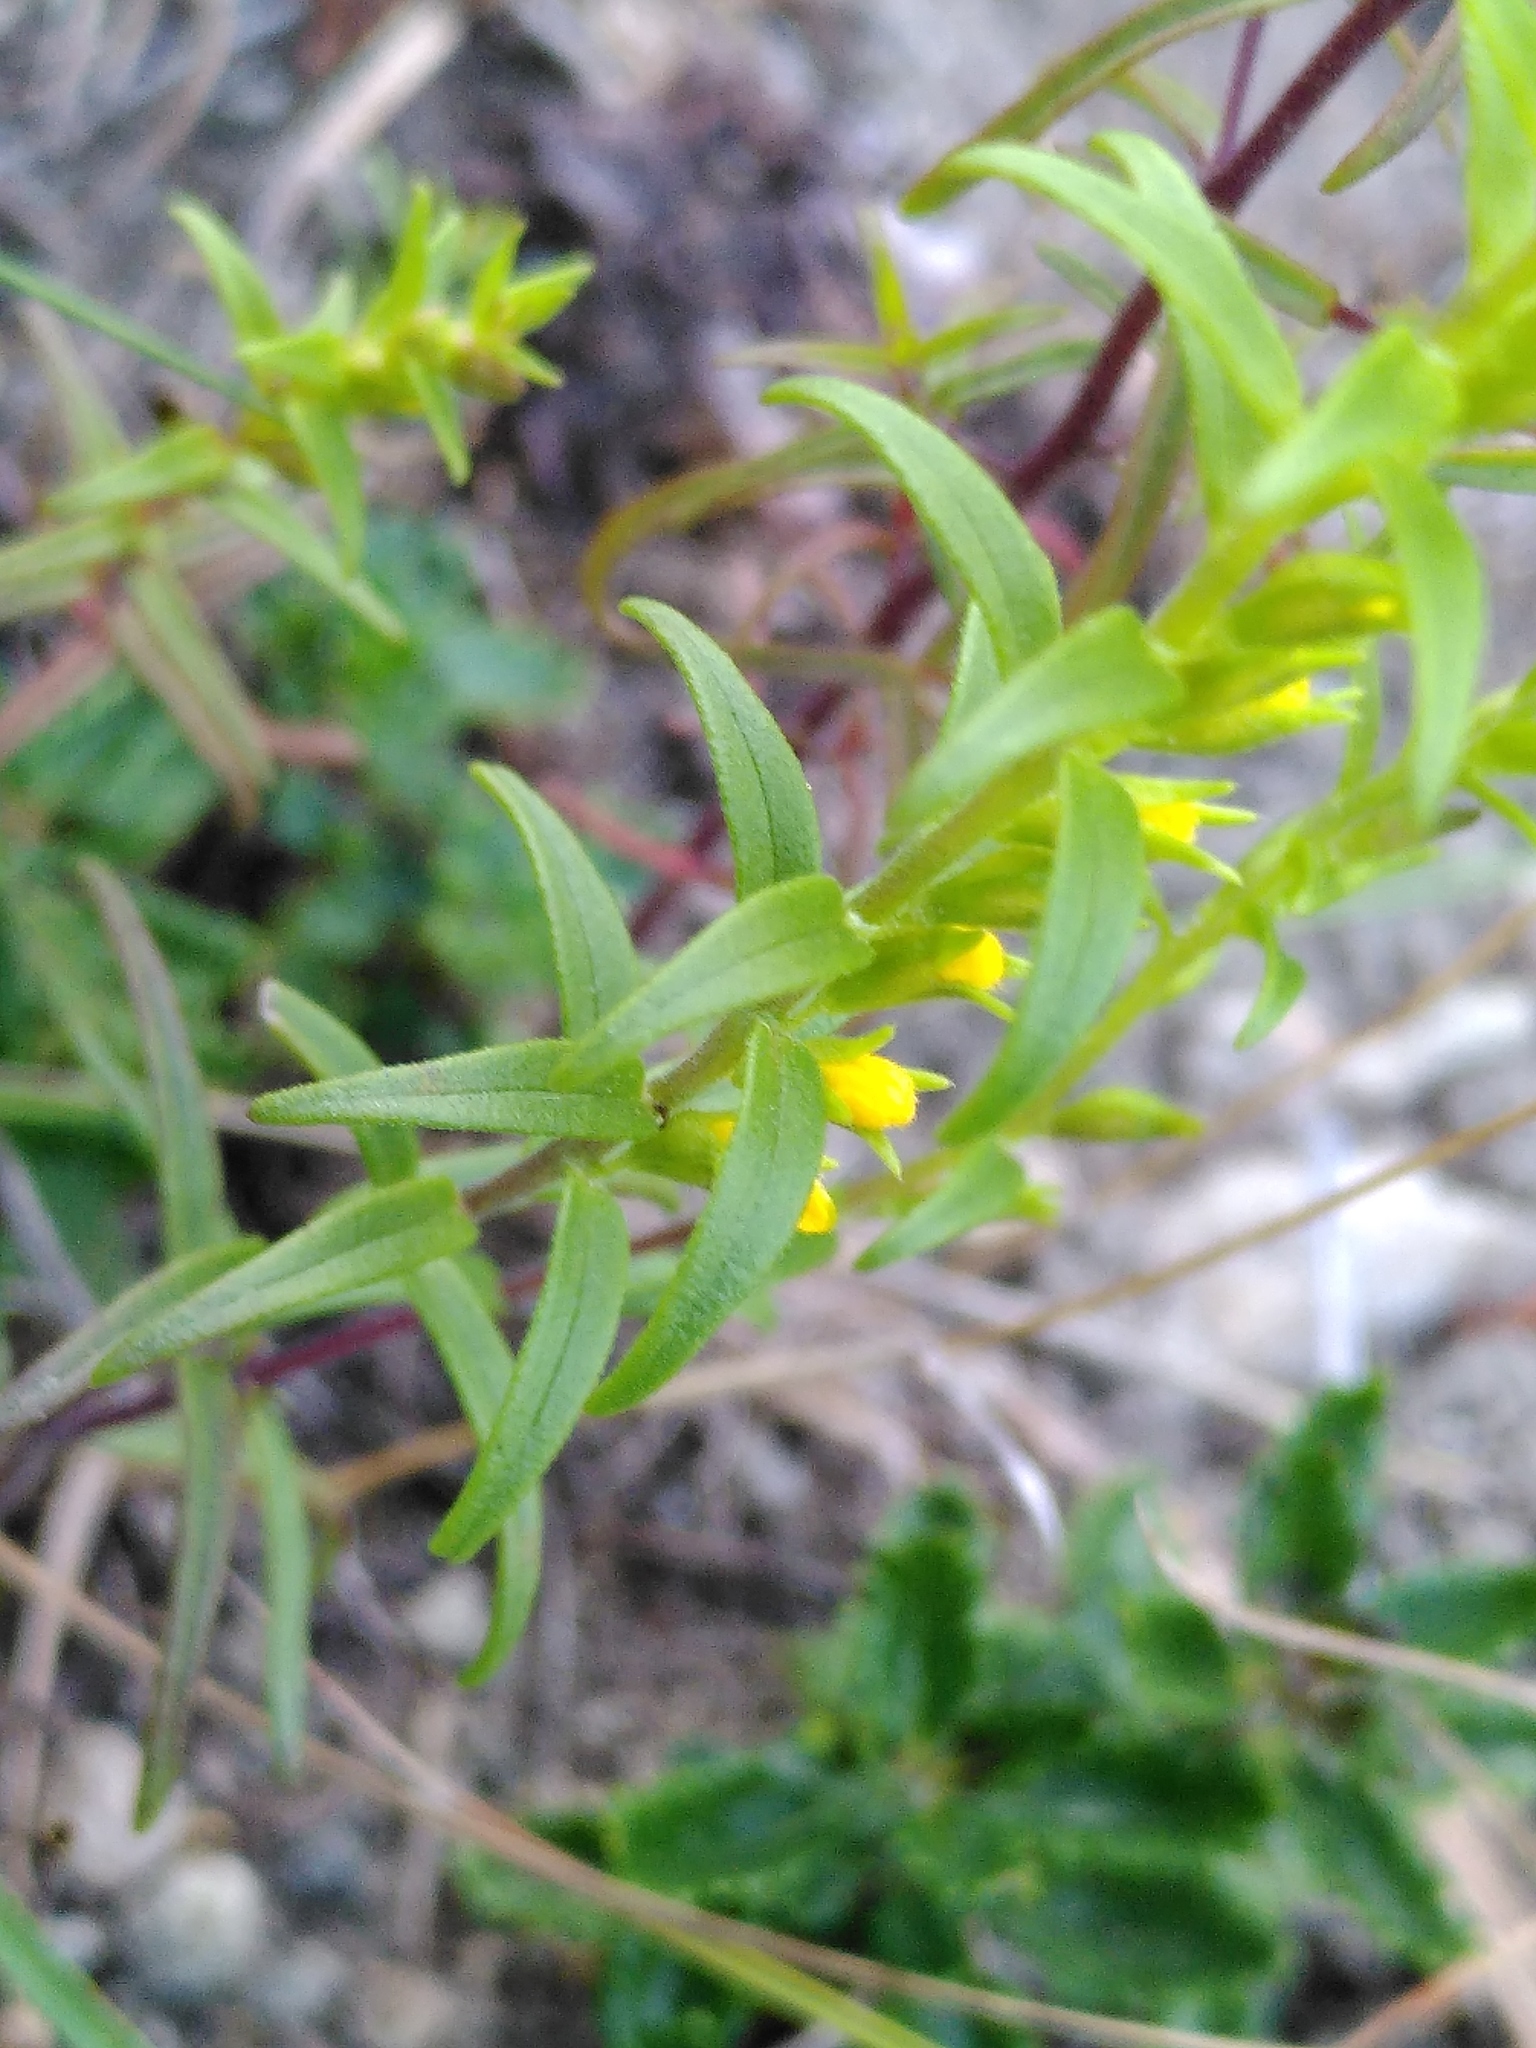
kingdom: Plantae
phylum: Tracheophyta
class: Magnoliopsida
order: Lamiales
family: Orobanchaceae
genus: Odontites
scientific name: Odontites luteus
